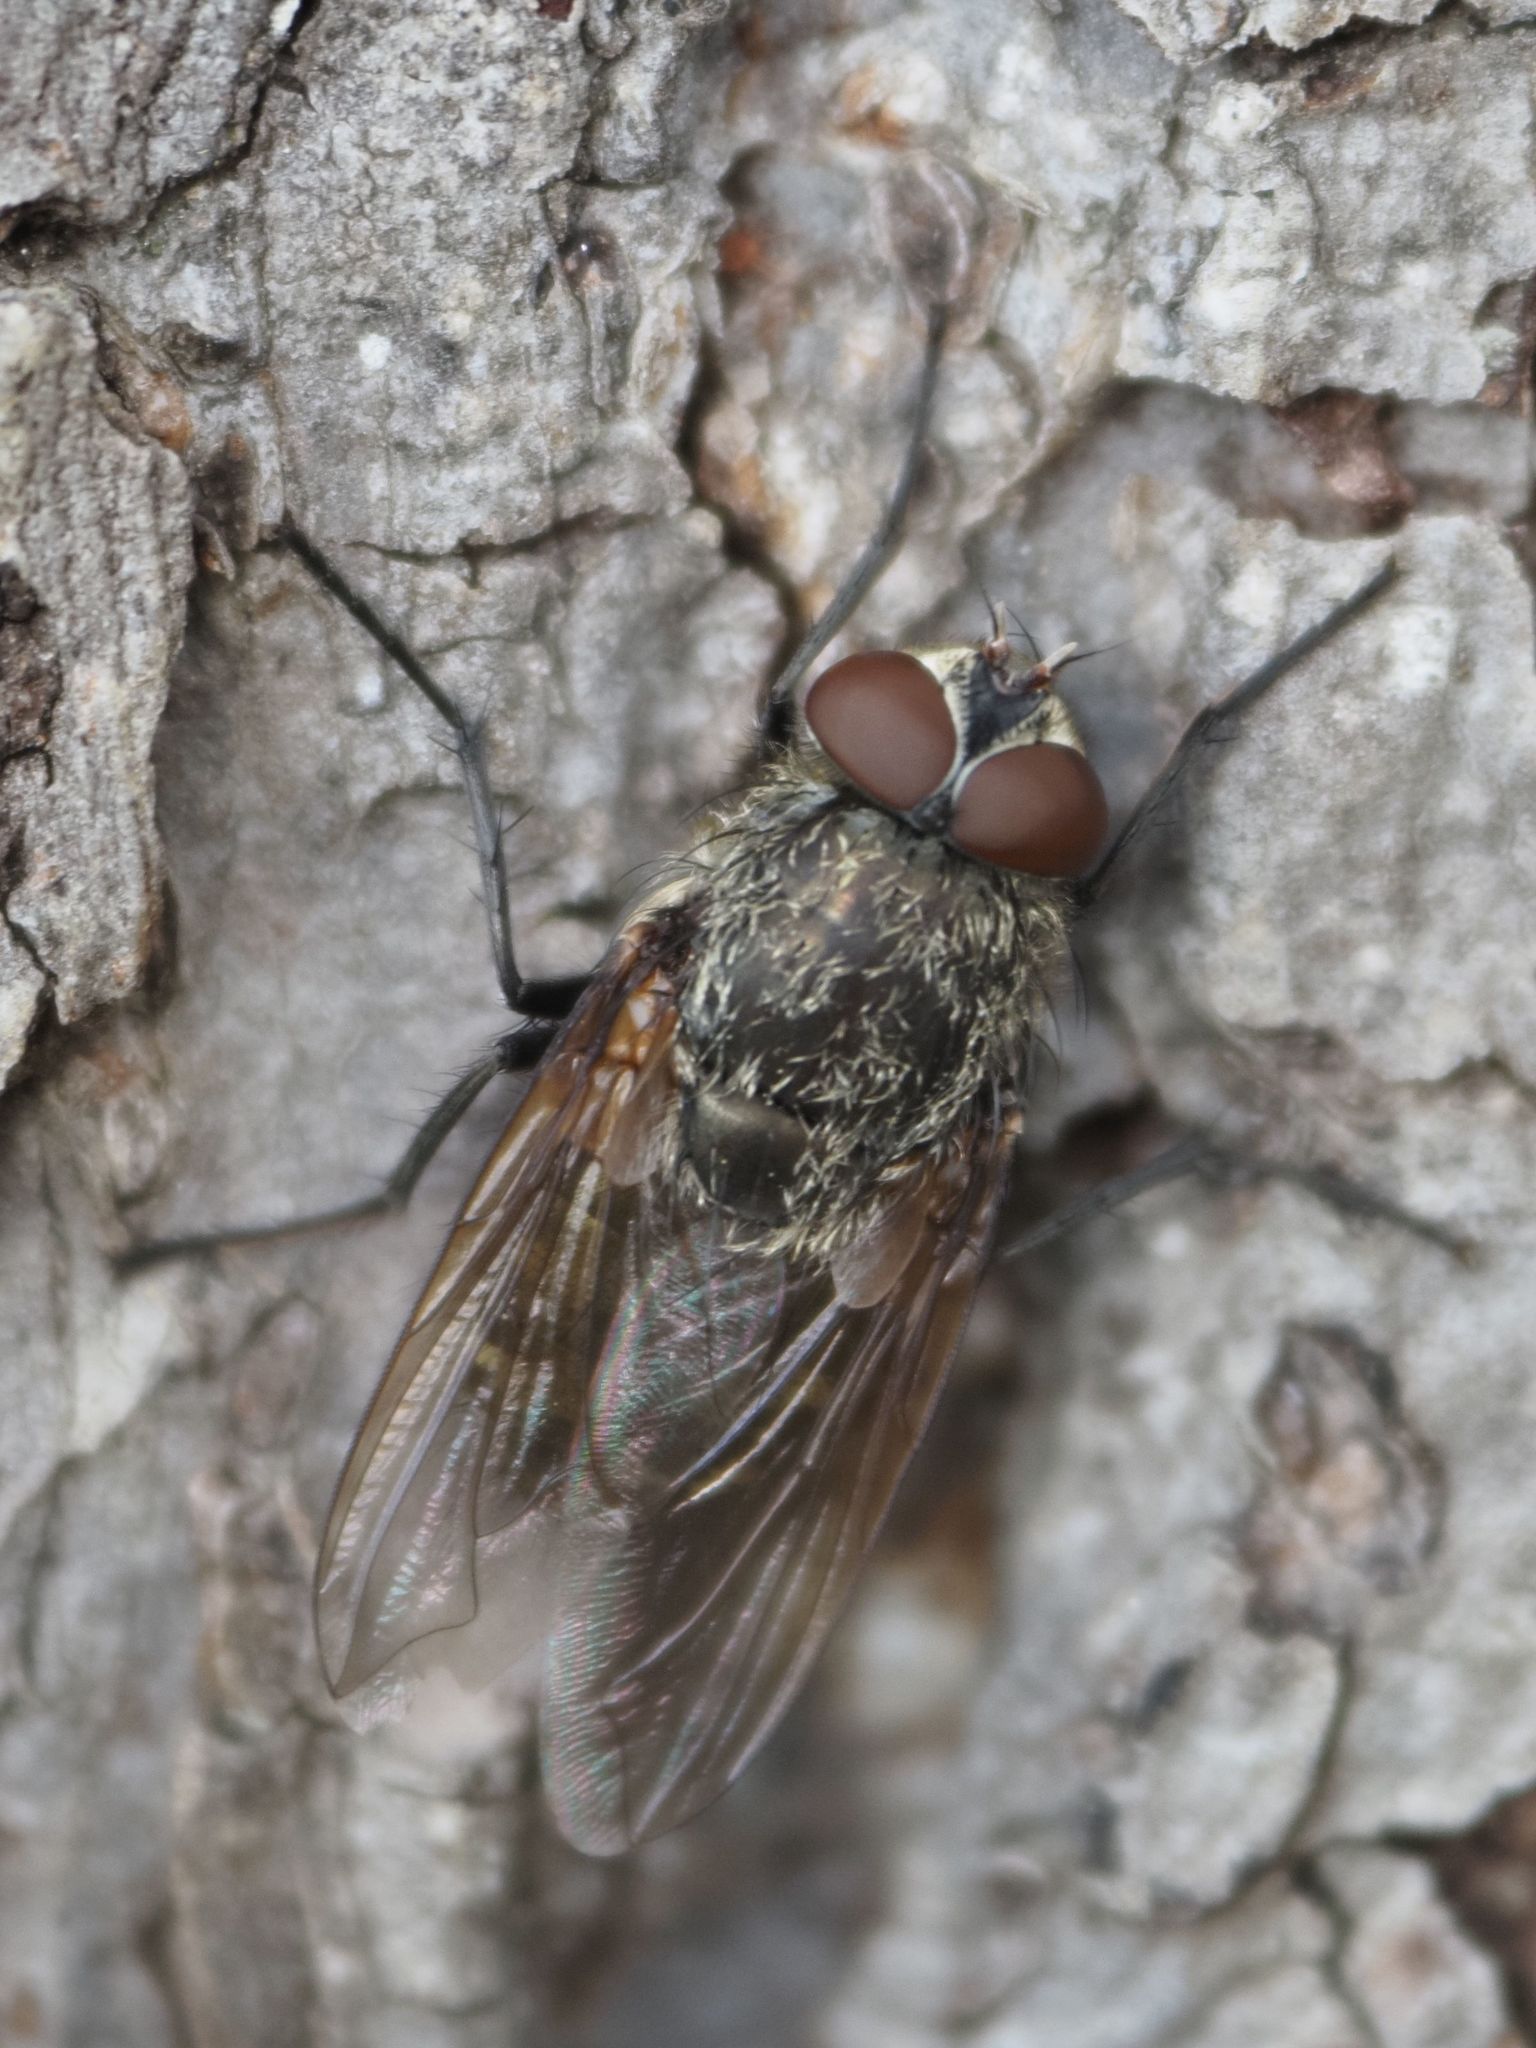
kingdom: Animalia
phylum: Arthropoda
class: Insecta
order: Diptera
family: Polleniidae
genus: Pollenia
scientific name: Pollenia rudis
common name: Awkward clusterfly
